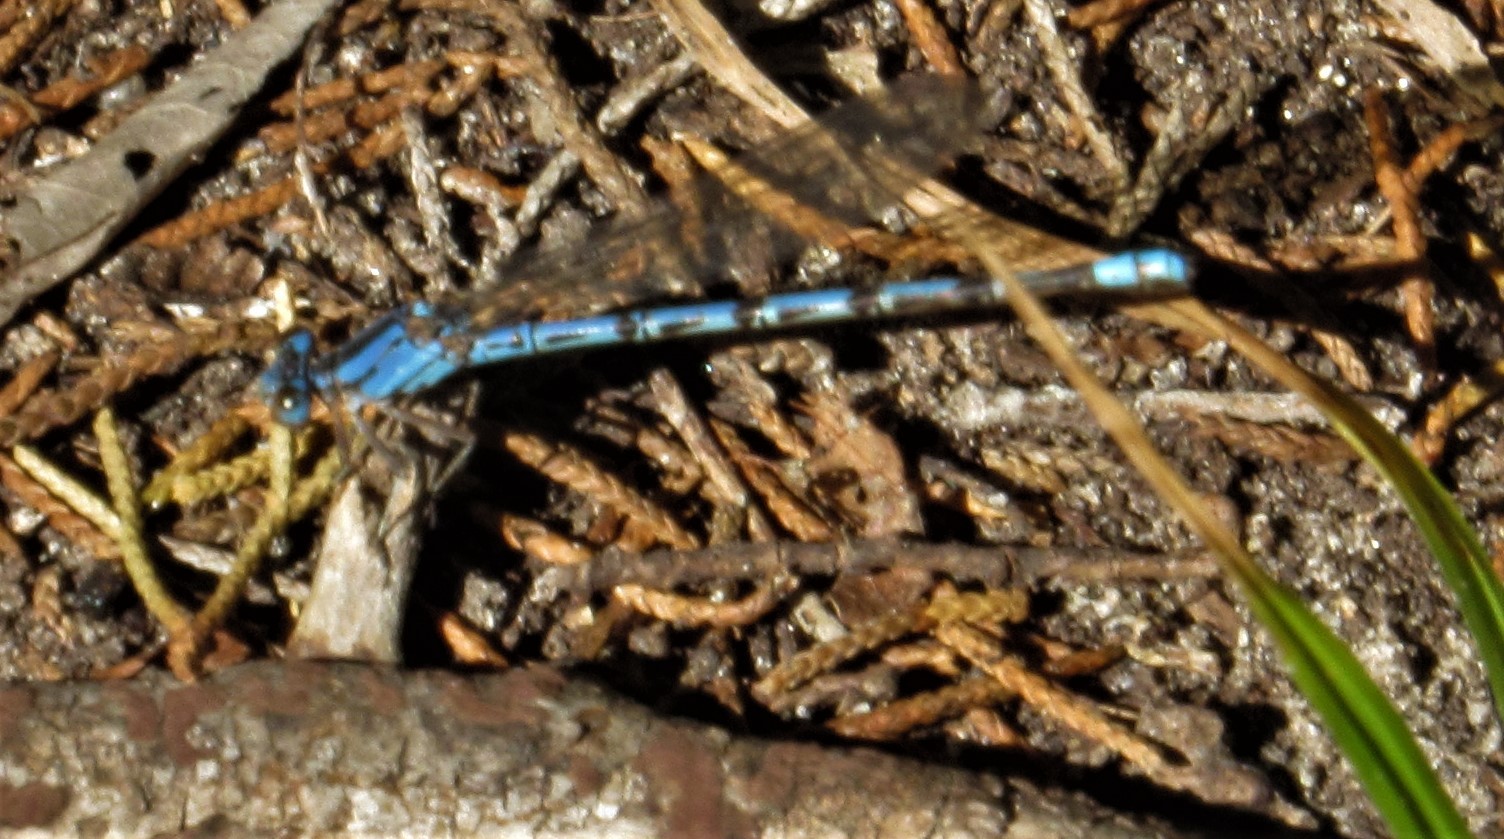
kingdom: Animalia
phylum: Arthropoda
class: Insecta
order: Odonata
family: Coenagrionidae
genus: Argia
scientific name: Argia funebris
